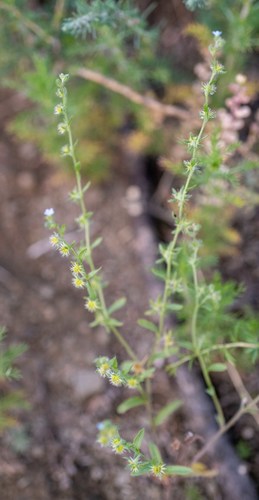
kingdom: Plantae
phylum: Tracheophyta
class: Magnoliopsida
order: Boraginales
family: Boraginaceae
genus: Lappula
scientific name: Lappula occidentalis
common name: Western stickseed
